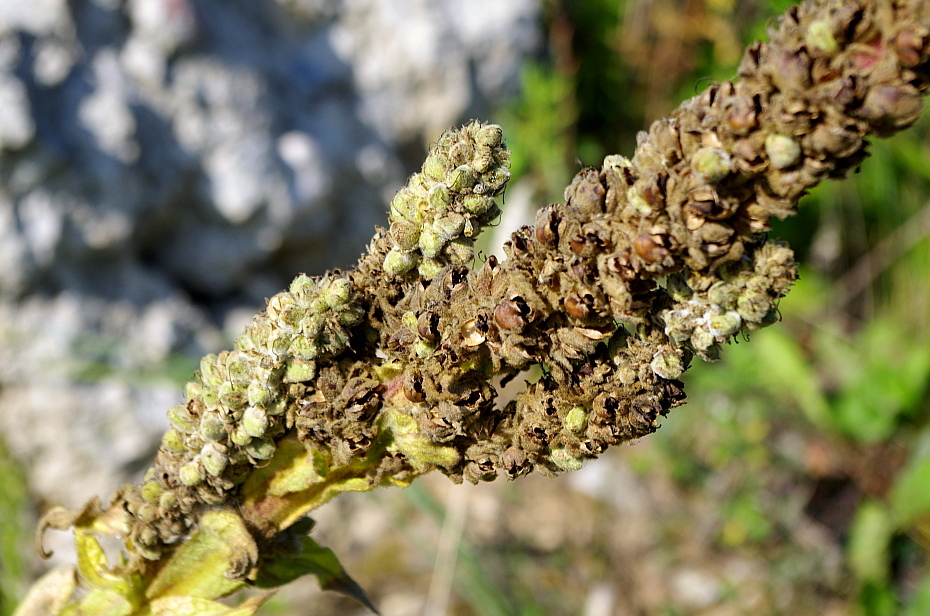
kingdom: Plantae
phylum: Tracheophyta
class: Magnoliopsida
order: Lamiales
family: Scrophulariaceae
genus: Verbascum
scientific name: Verbascum thapsus
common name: Common mullein
